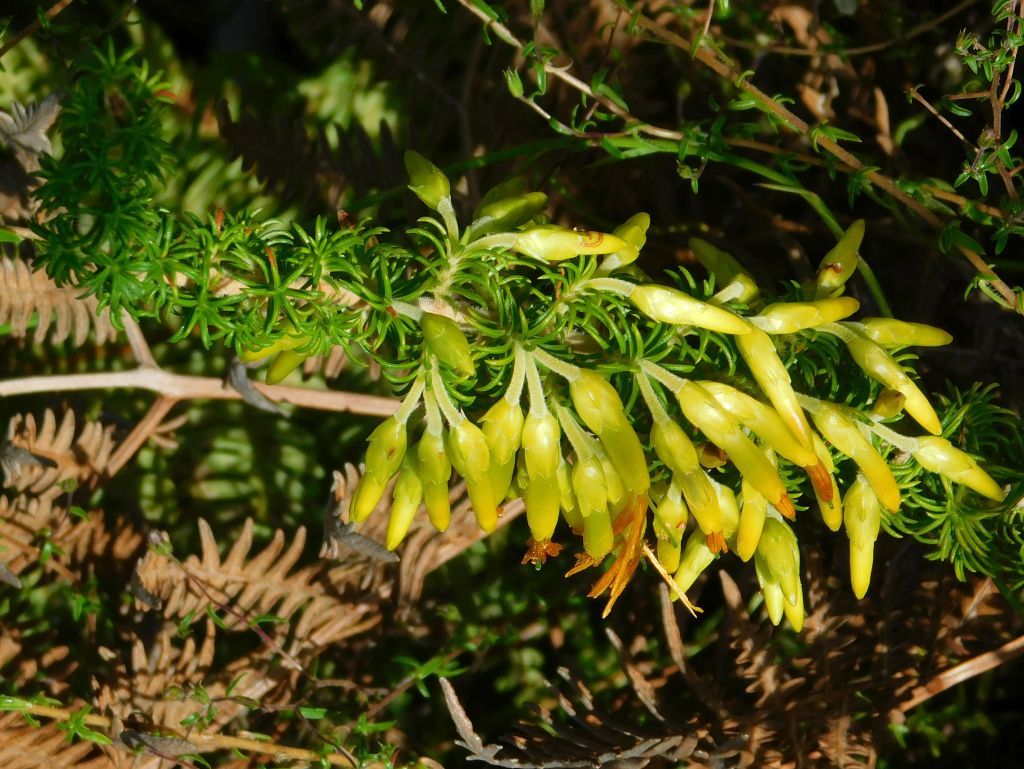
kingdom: Plantae
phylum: Tracheophyta
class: Magnoliopsida
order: Ericales
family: Ericaceae
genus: Erica
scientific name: Erica coccinea
